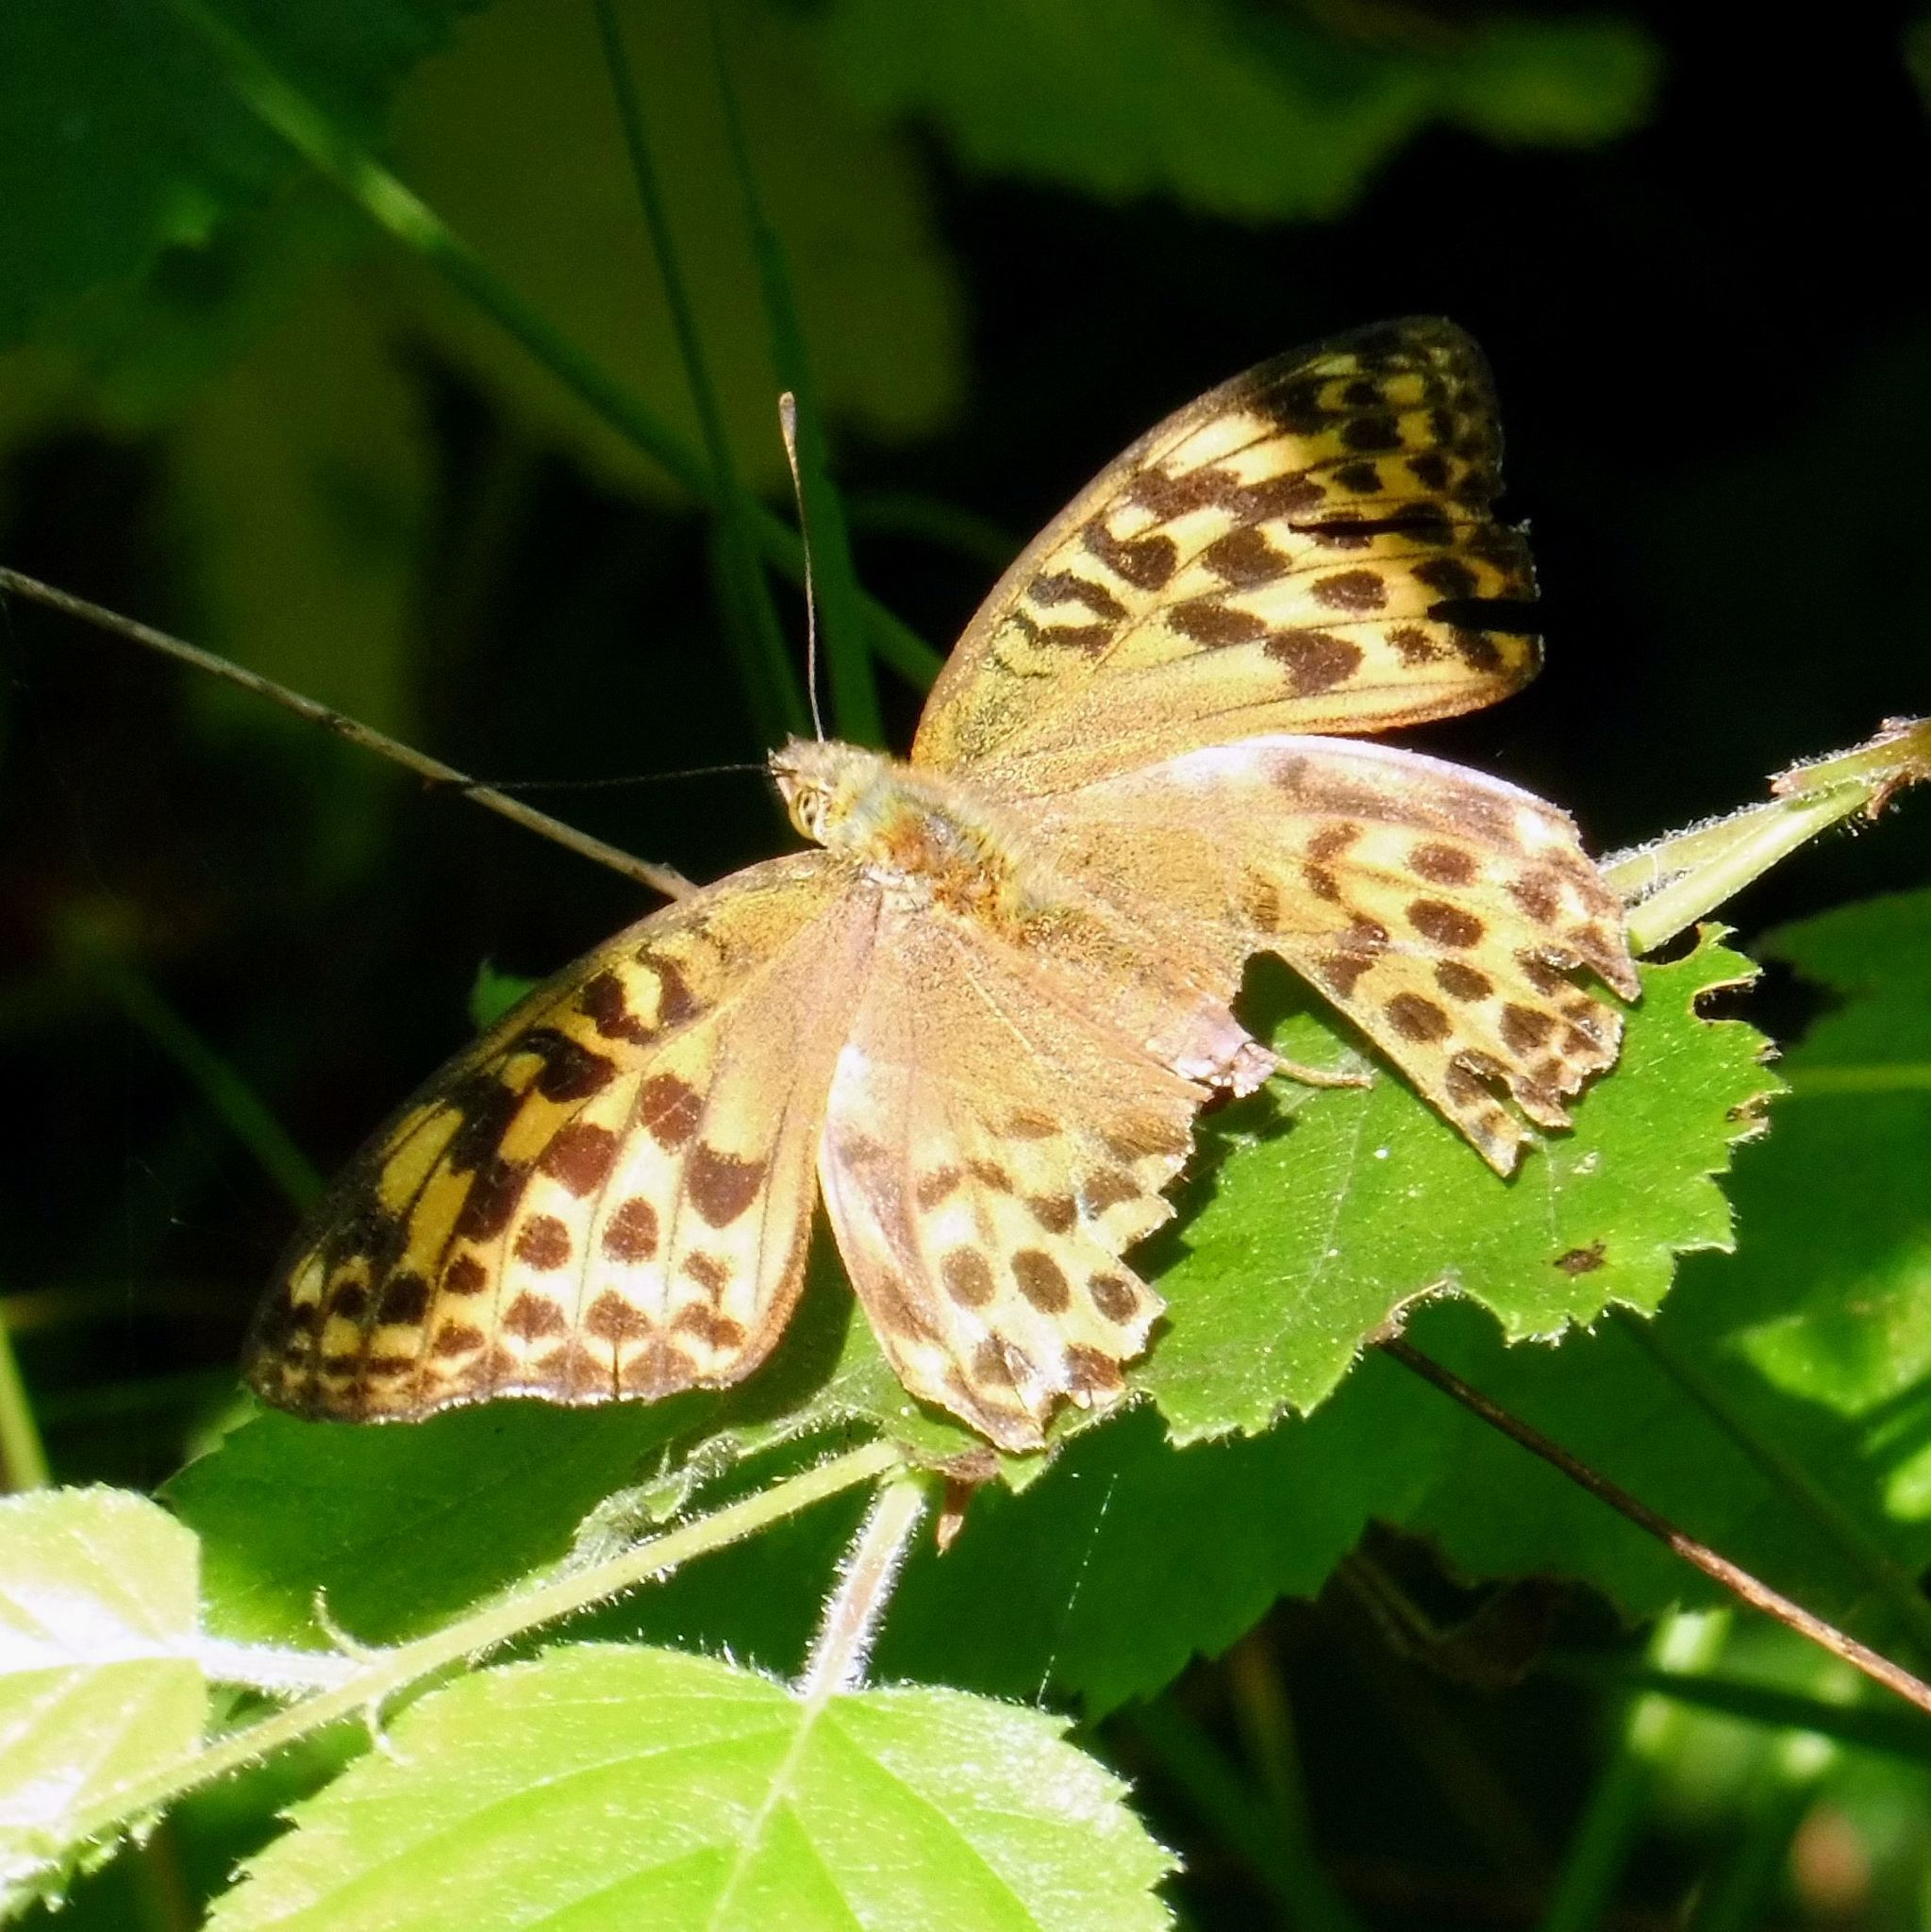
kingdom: Animalia
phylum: Arthropoda
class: Insecta
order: Lepidoptera
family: Nymphalidae
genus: Argynnis
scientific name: Argynnis paphia
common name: Silver-washed fritillary
